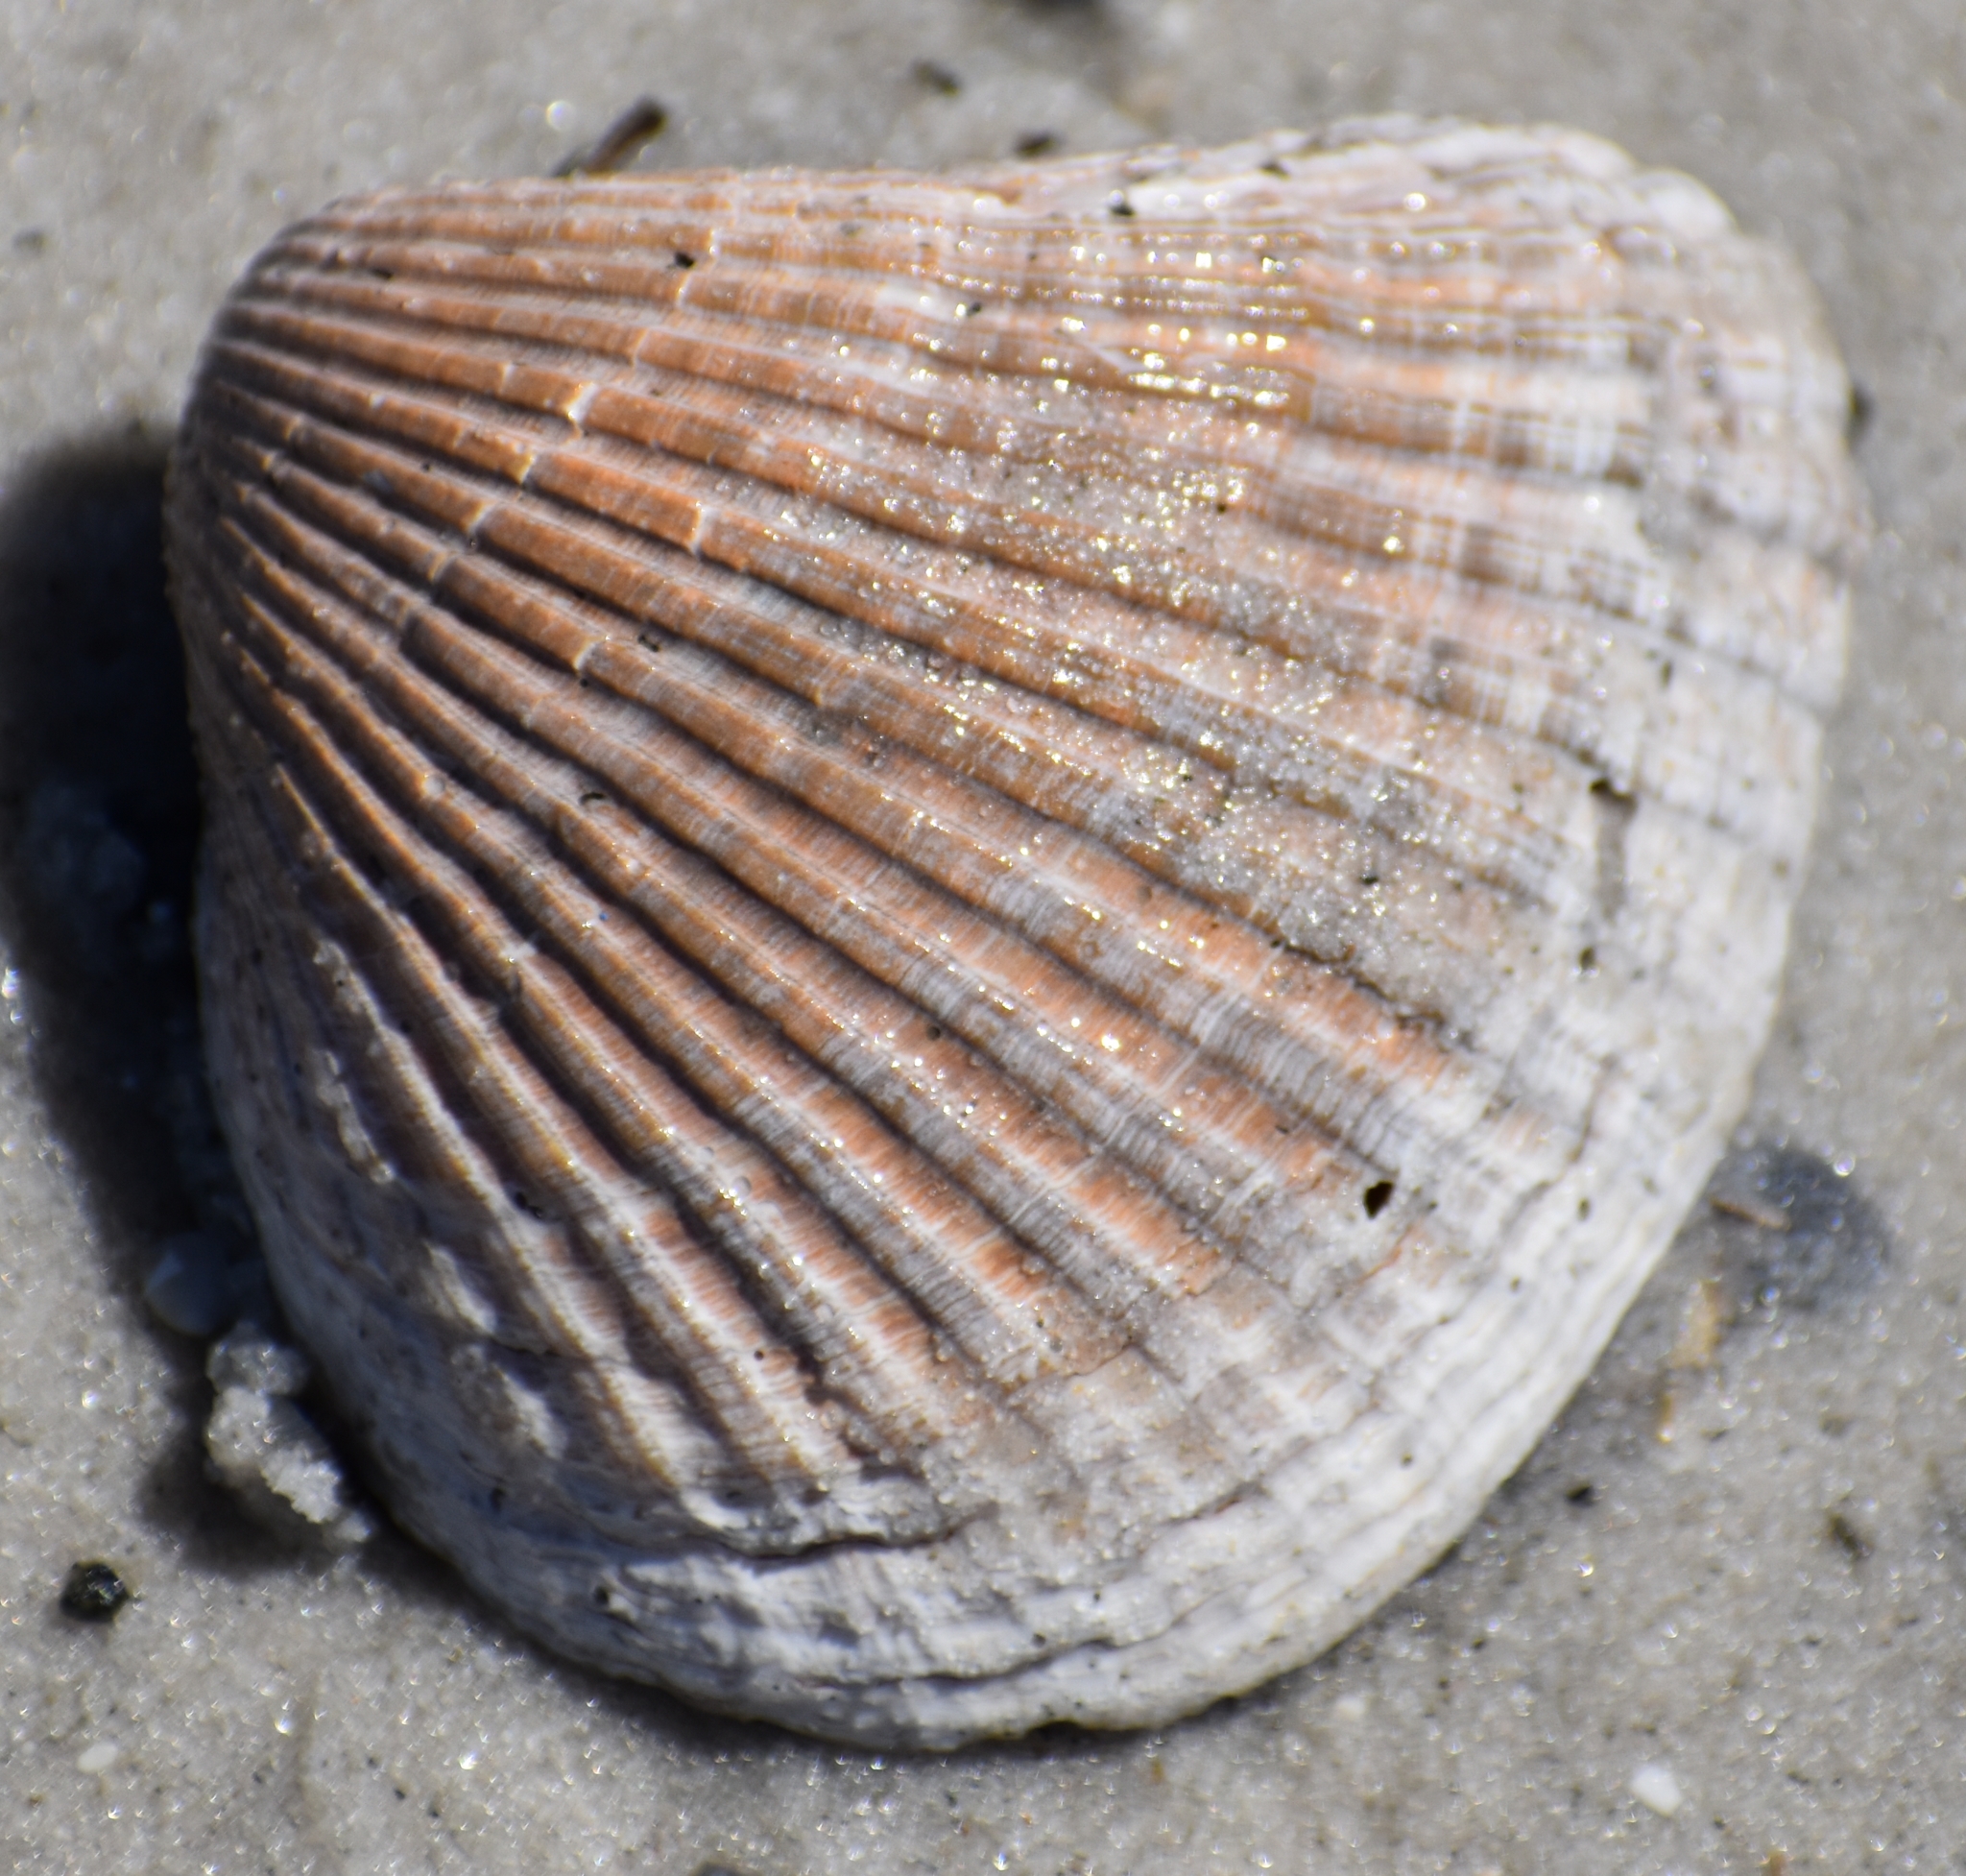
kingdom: Animalia
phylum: Mollusca
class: Bivalvia
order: Arcida
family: Noetiidae
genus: Noetia
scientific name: Noetia ponderosa
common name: Ponderous ark
